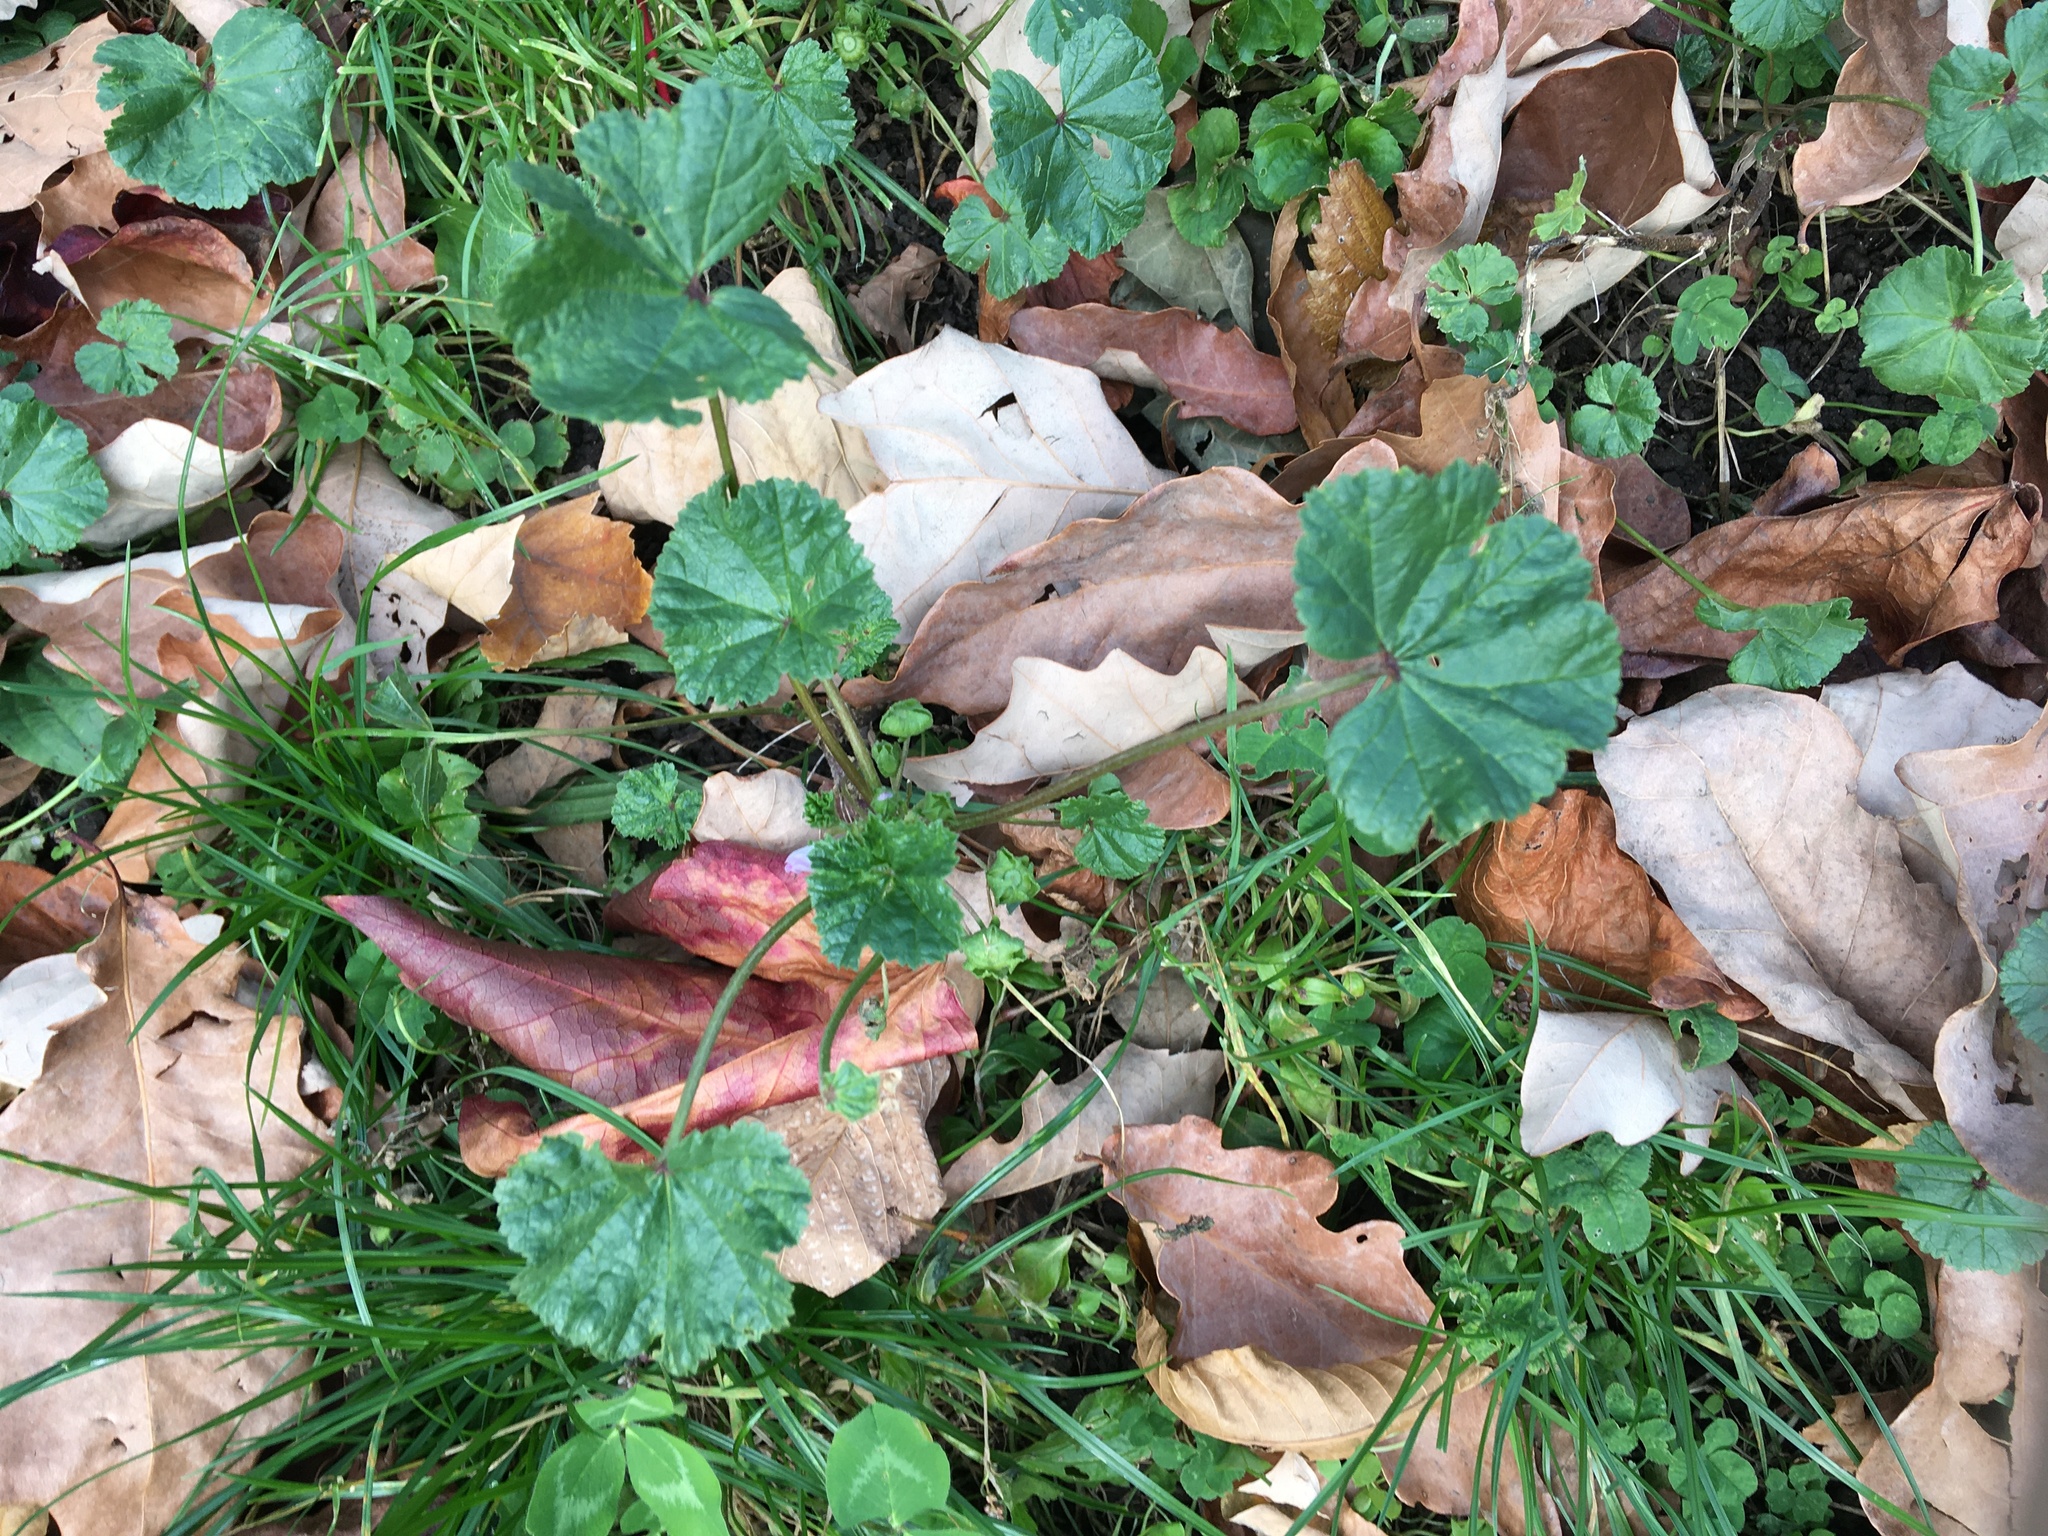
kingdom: Plantae
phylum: Tracheophyta
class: Magnoliopsida
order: Malvales
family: Malvaceae
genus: Malva
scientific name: Malva neglecta
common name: Common mallow
